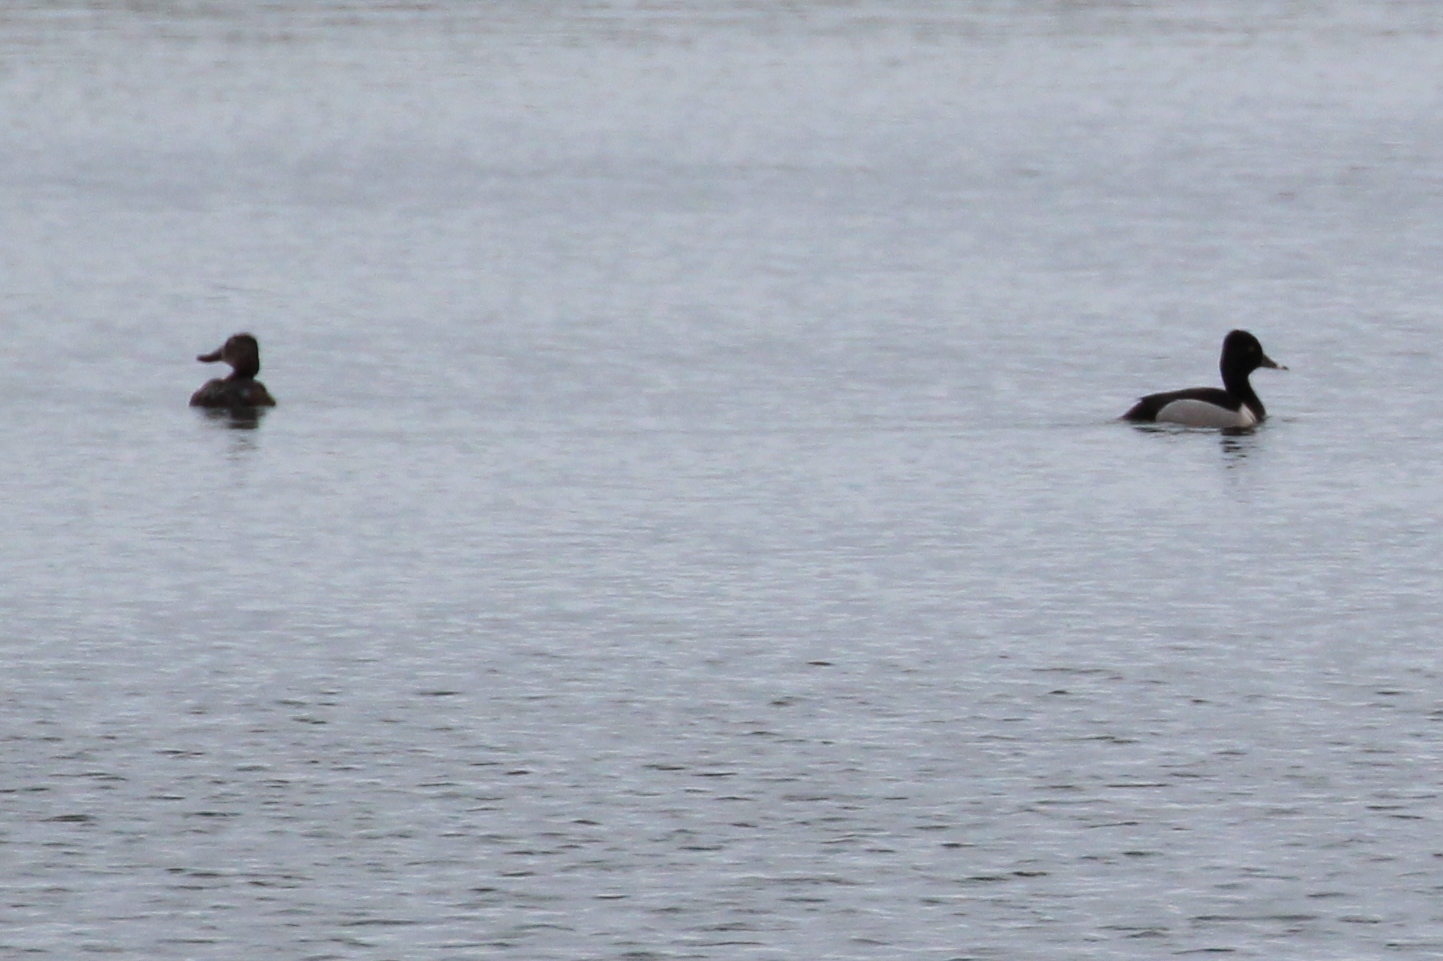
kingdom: Animalia
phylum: Chordata
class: Aves
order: Anseriformes
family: Anatidae
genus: Aythya
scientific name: Aythya collaris
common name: Ring-necked duck
